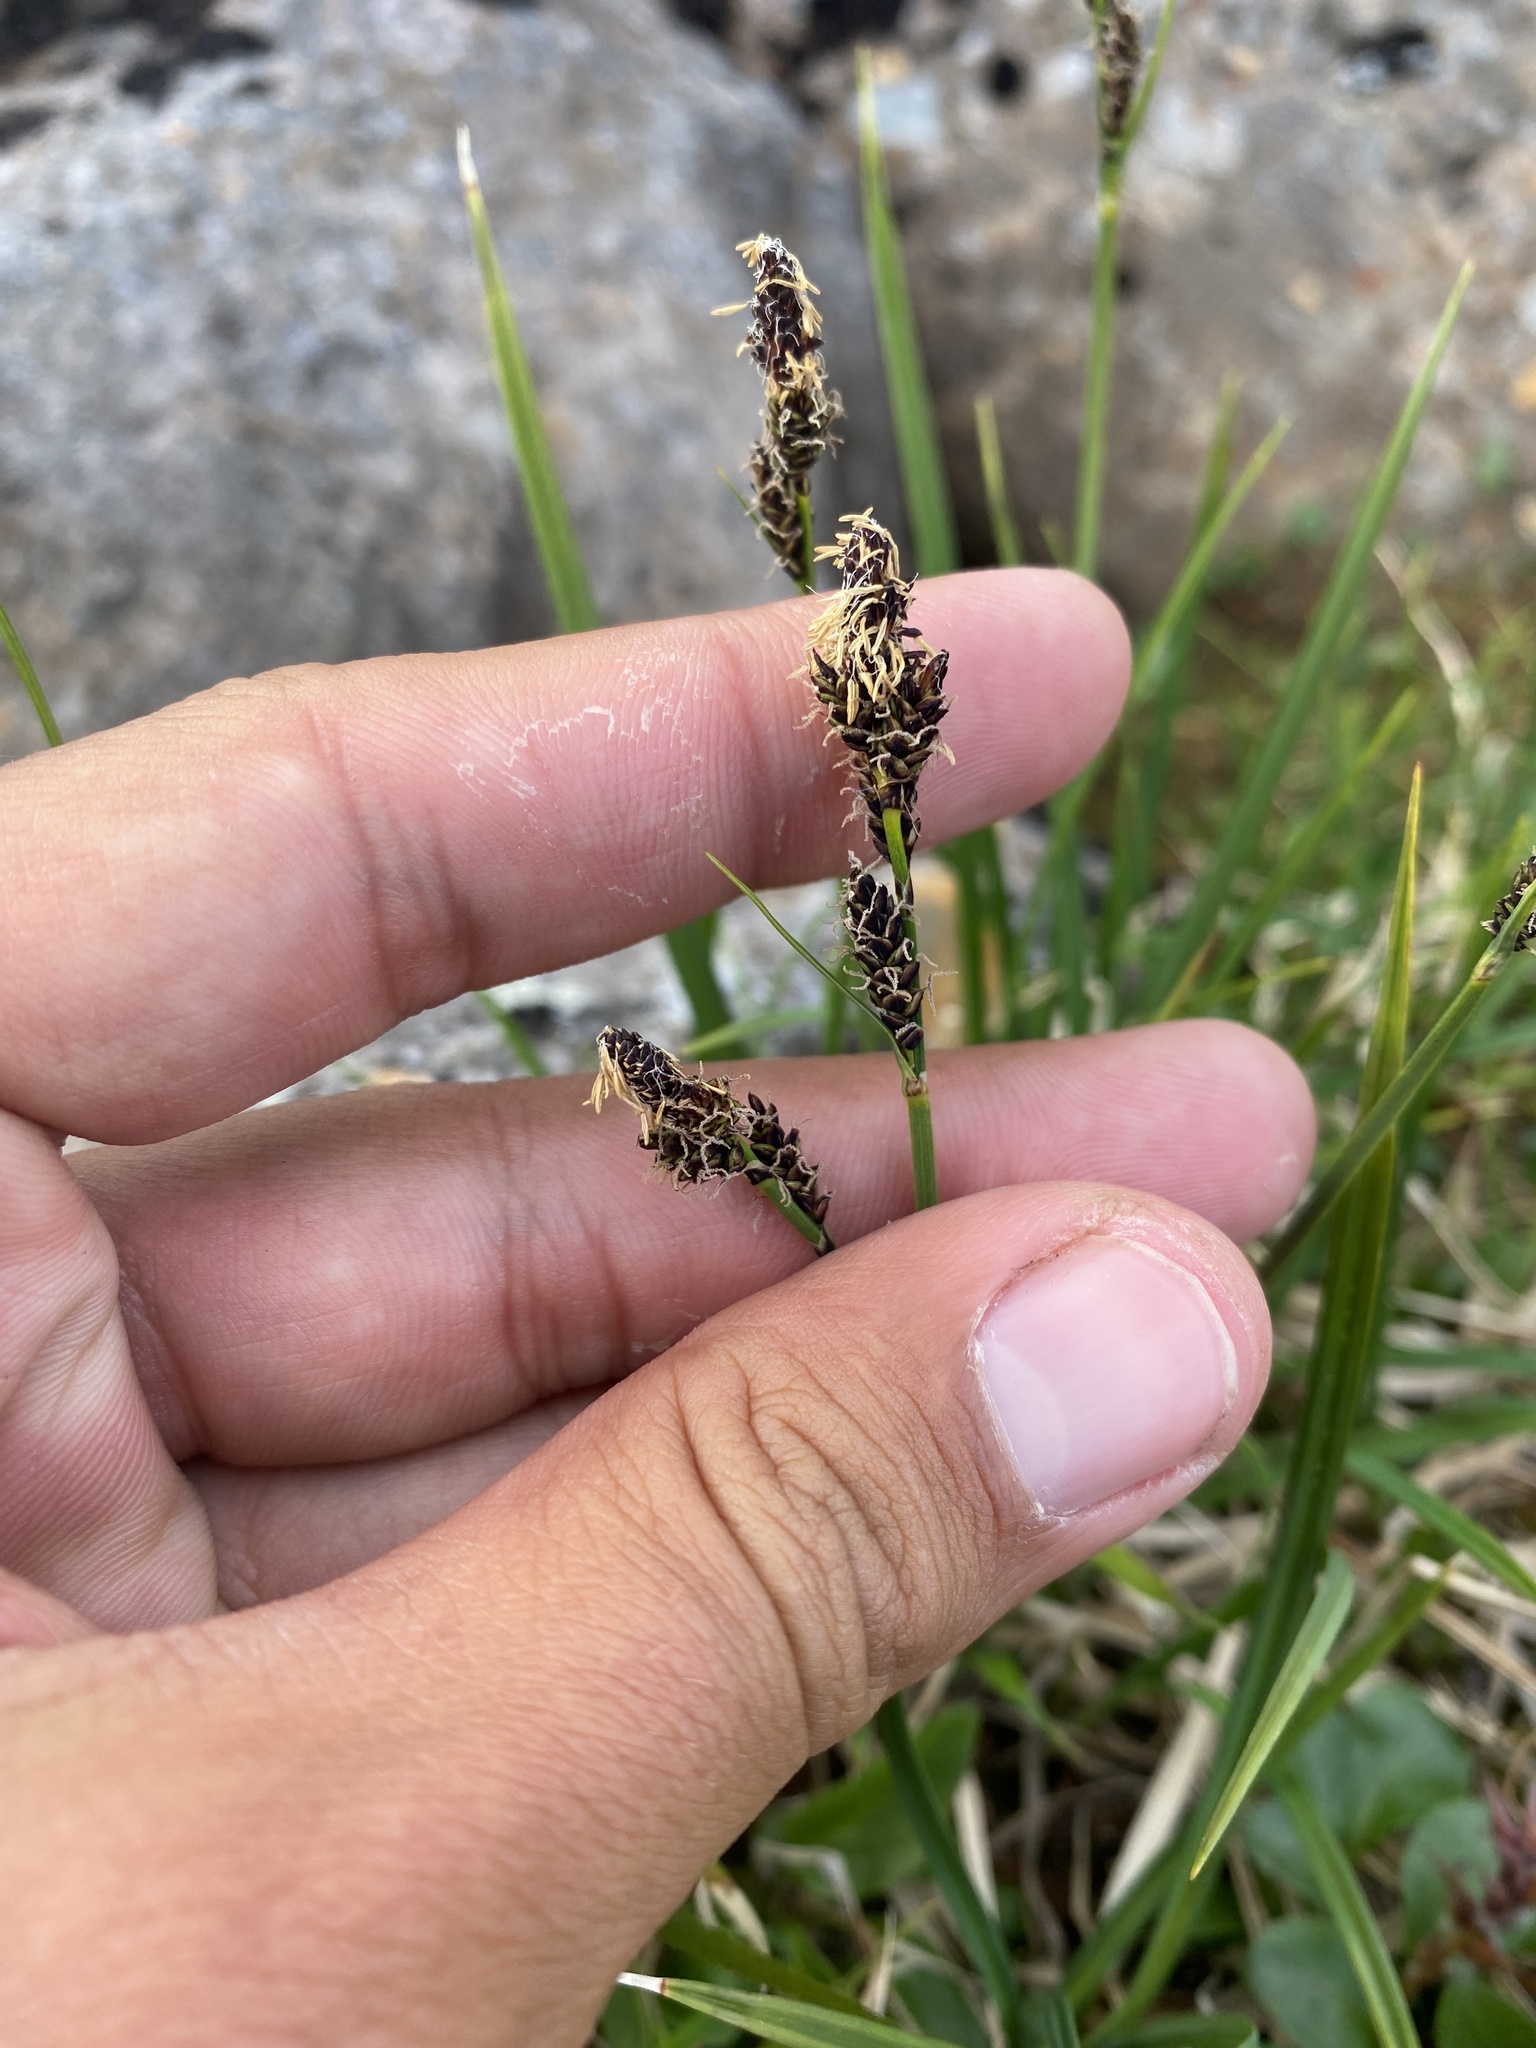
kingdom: Plantae
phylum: Tracheophyta
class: Liliopsida
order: Poales
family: Cyperaceae
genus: Carex
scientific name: Carex bigelowii
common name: Stiff sedge
